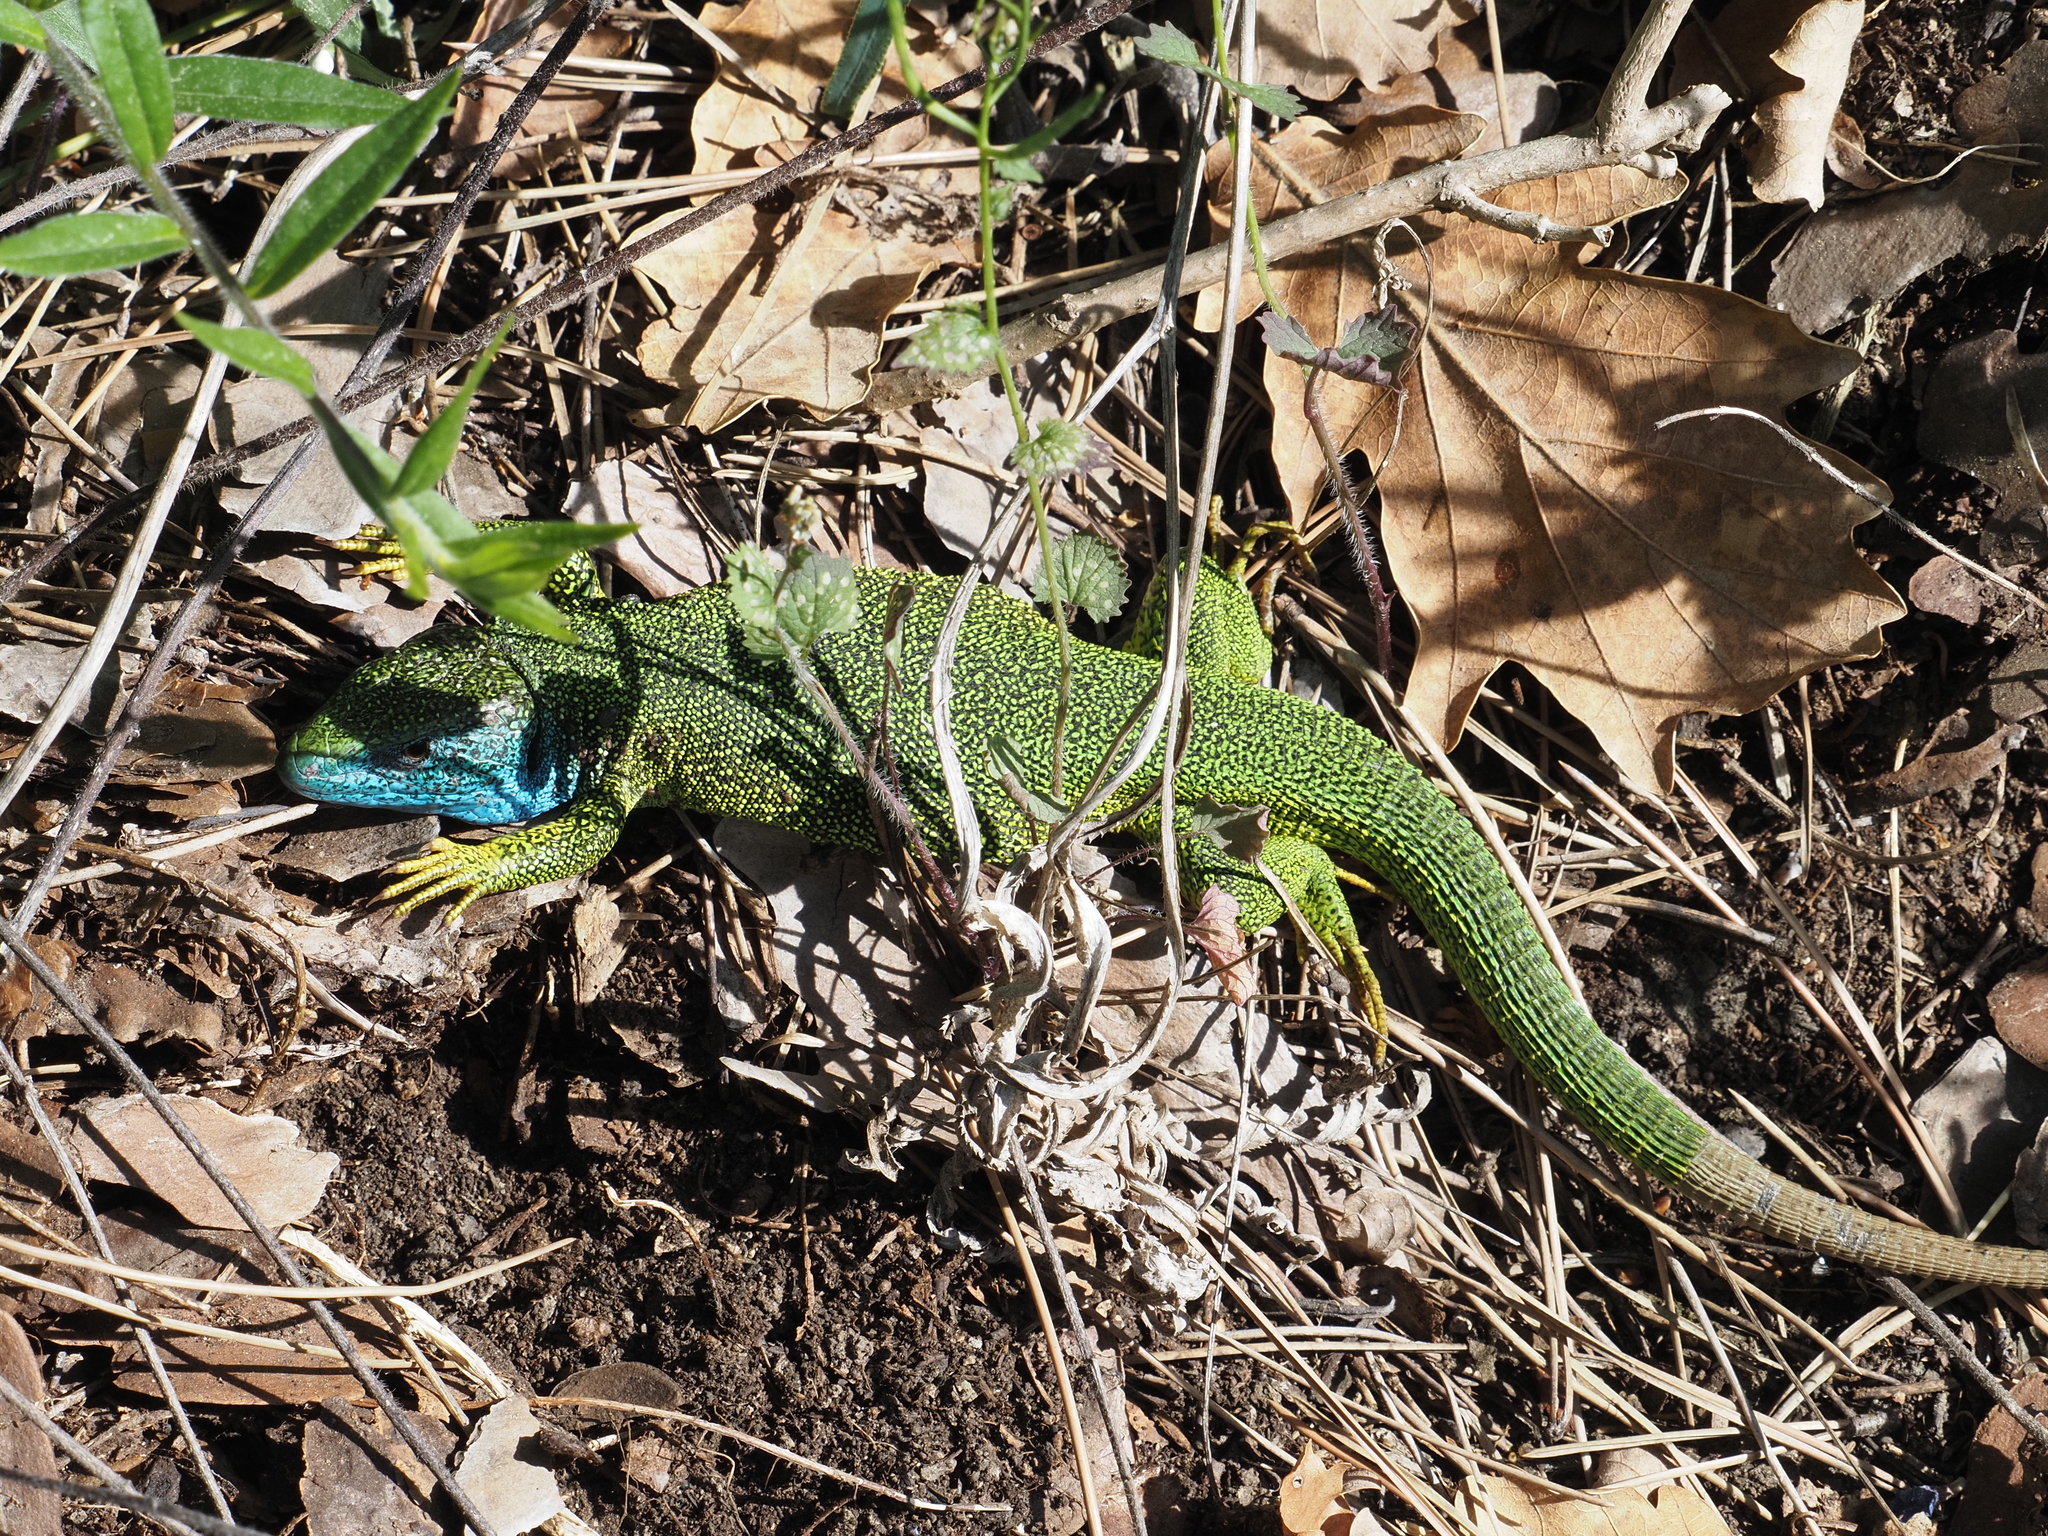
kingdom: Animalia
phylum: Chordata
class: Squamata
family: Lacertidae
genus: Lacerta
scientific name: Lacerta viridis
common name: European green lizard
